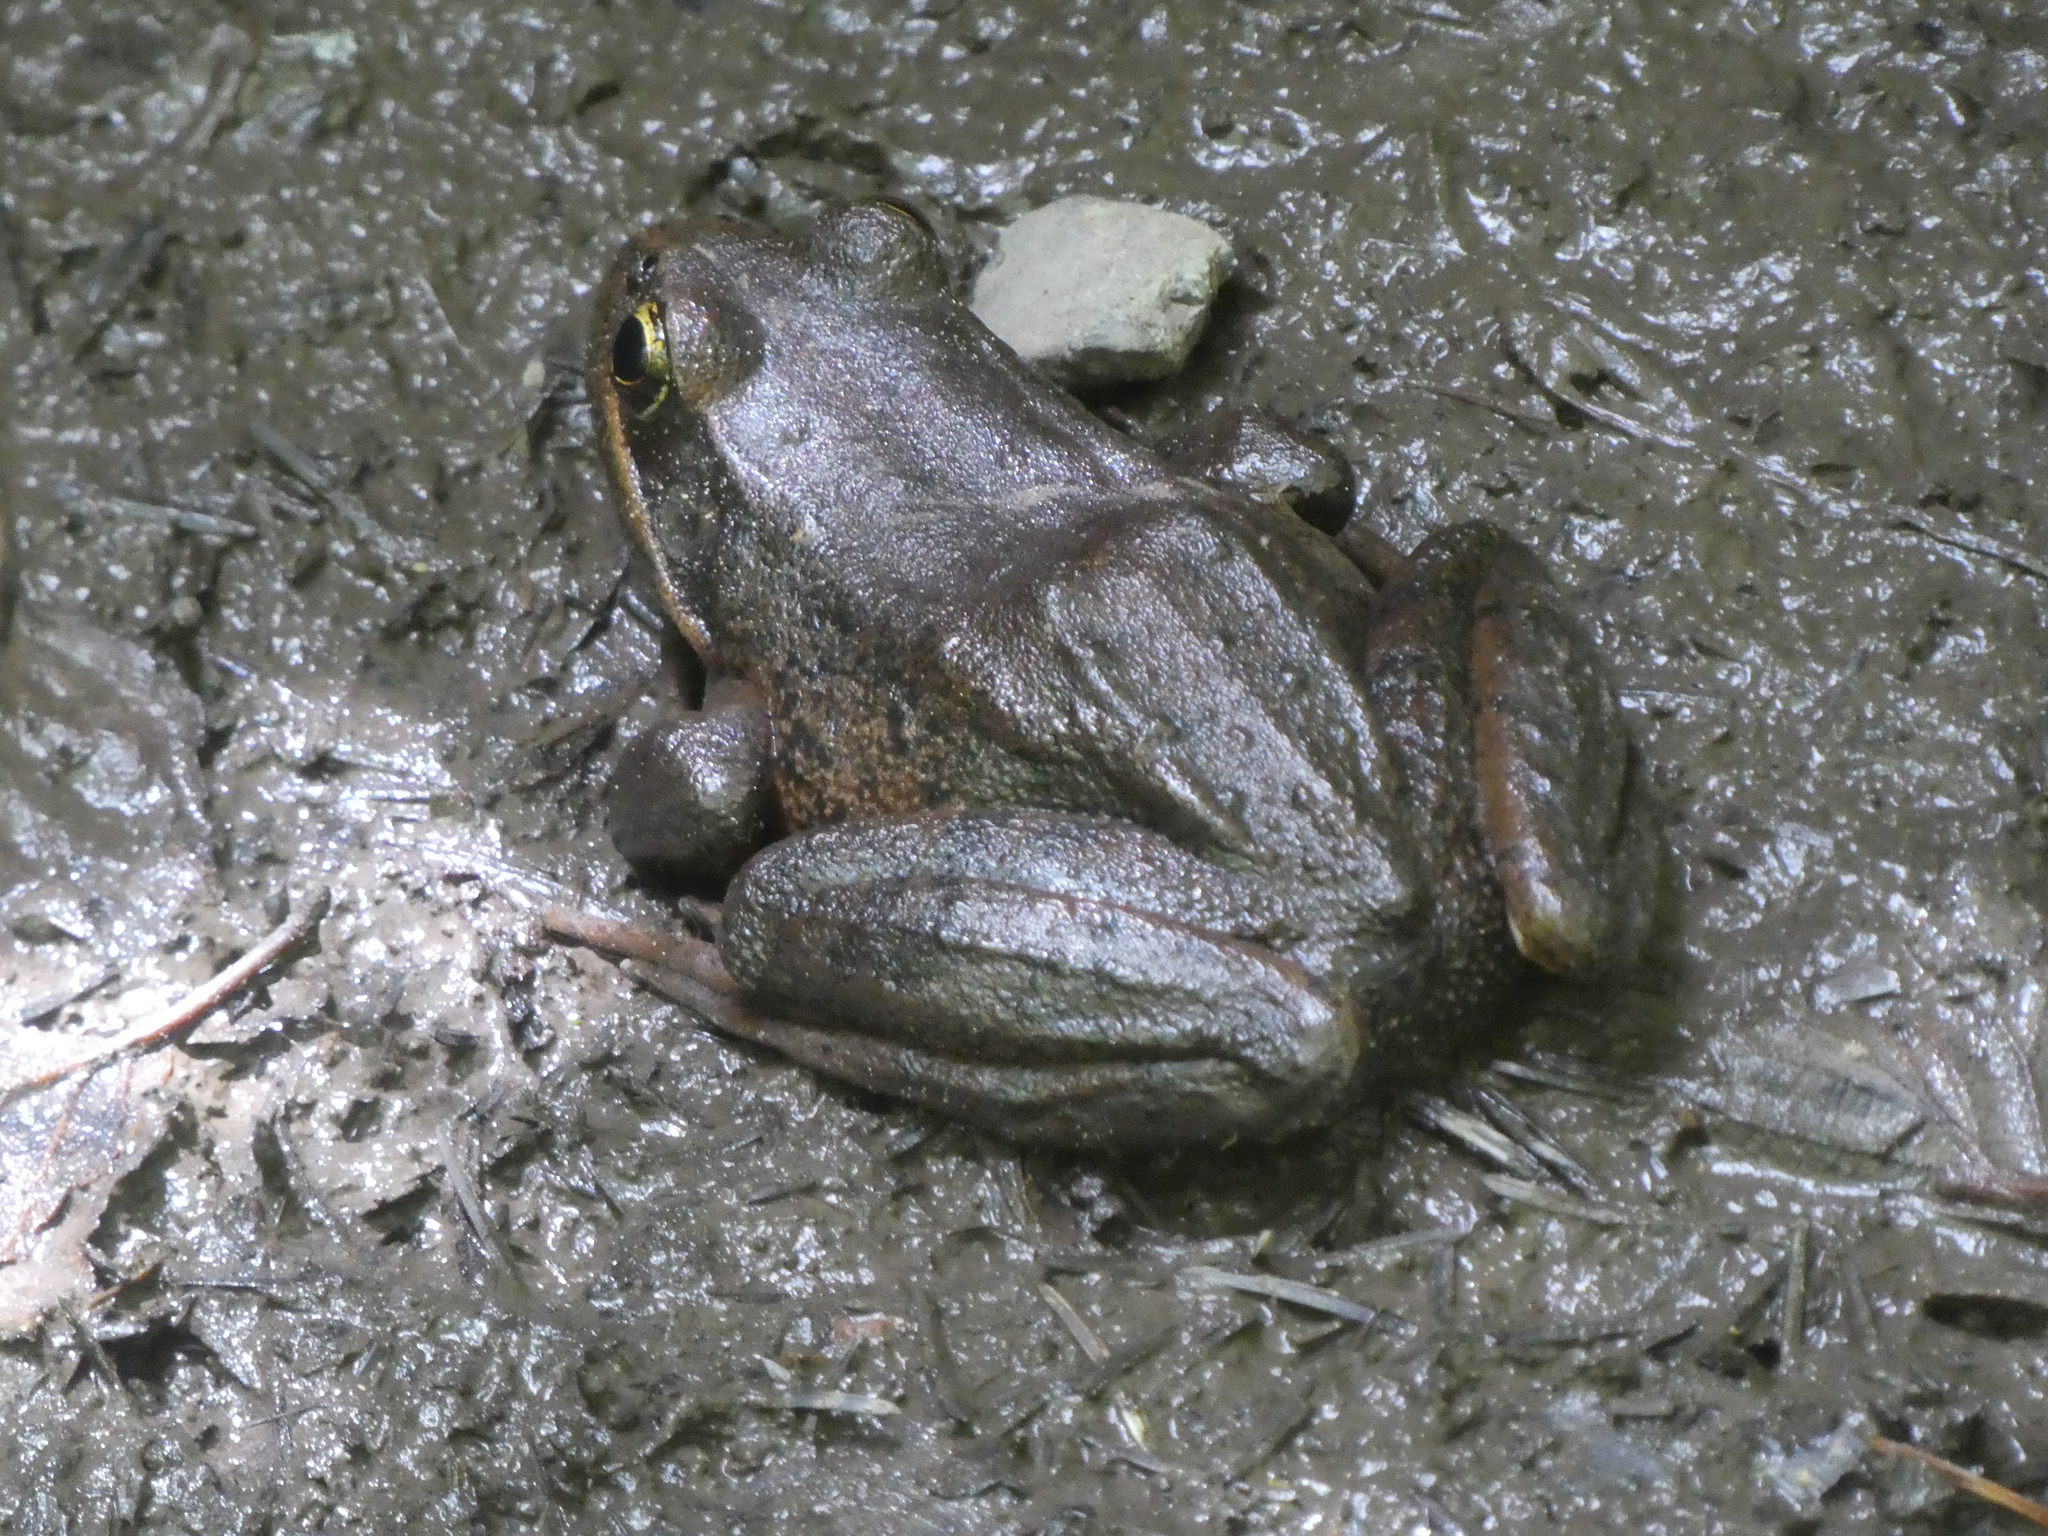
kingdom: Animalia
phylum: Chordata
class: Amphibia
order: Anura
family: Ranidae
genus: Rana
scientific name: Rana aurora
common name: Red-legged frog
